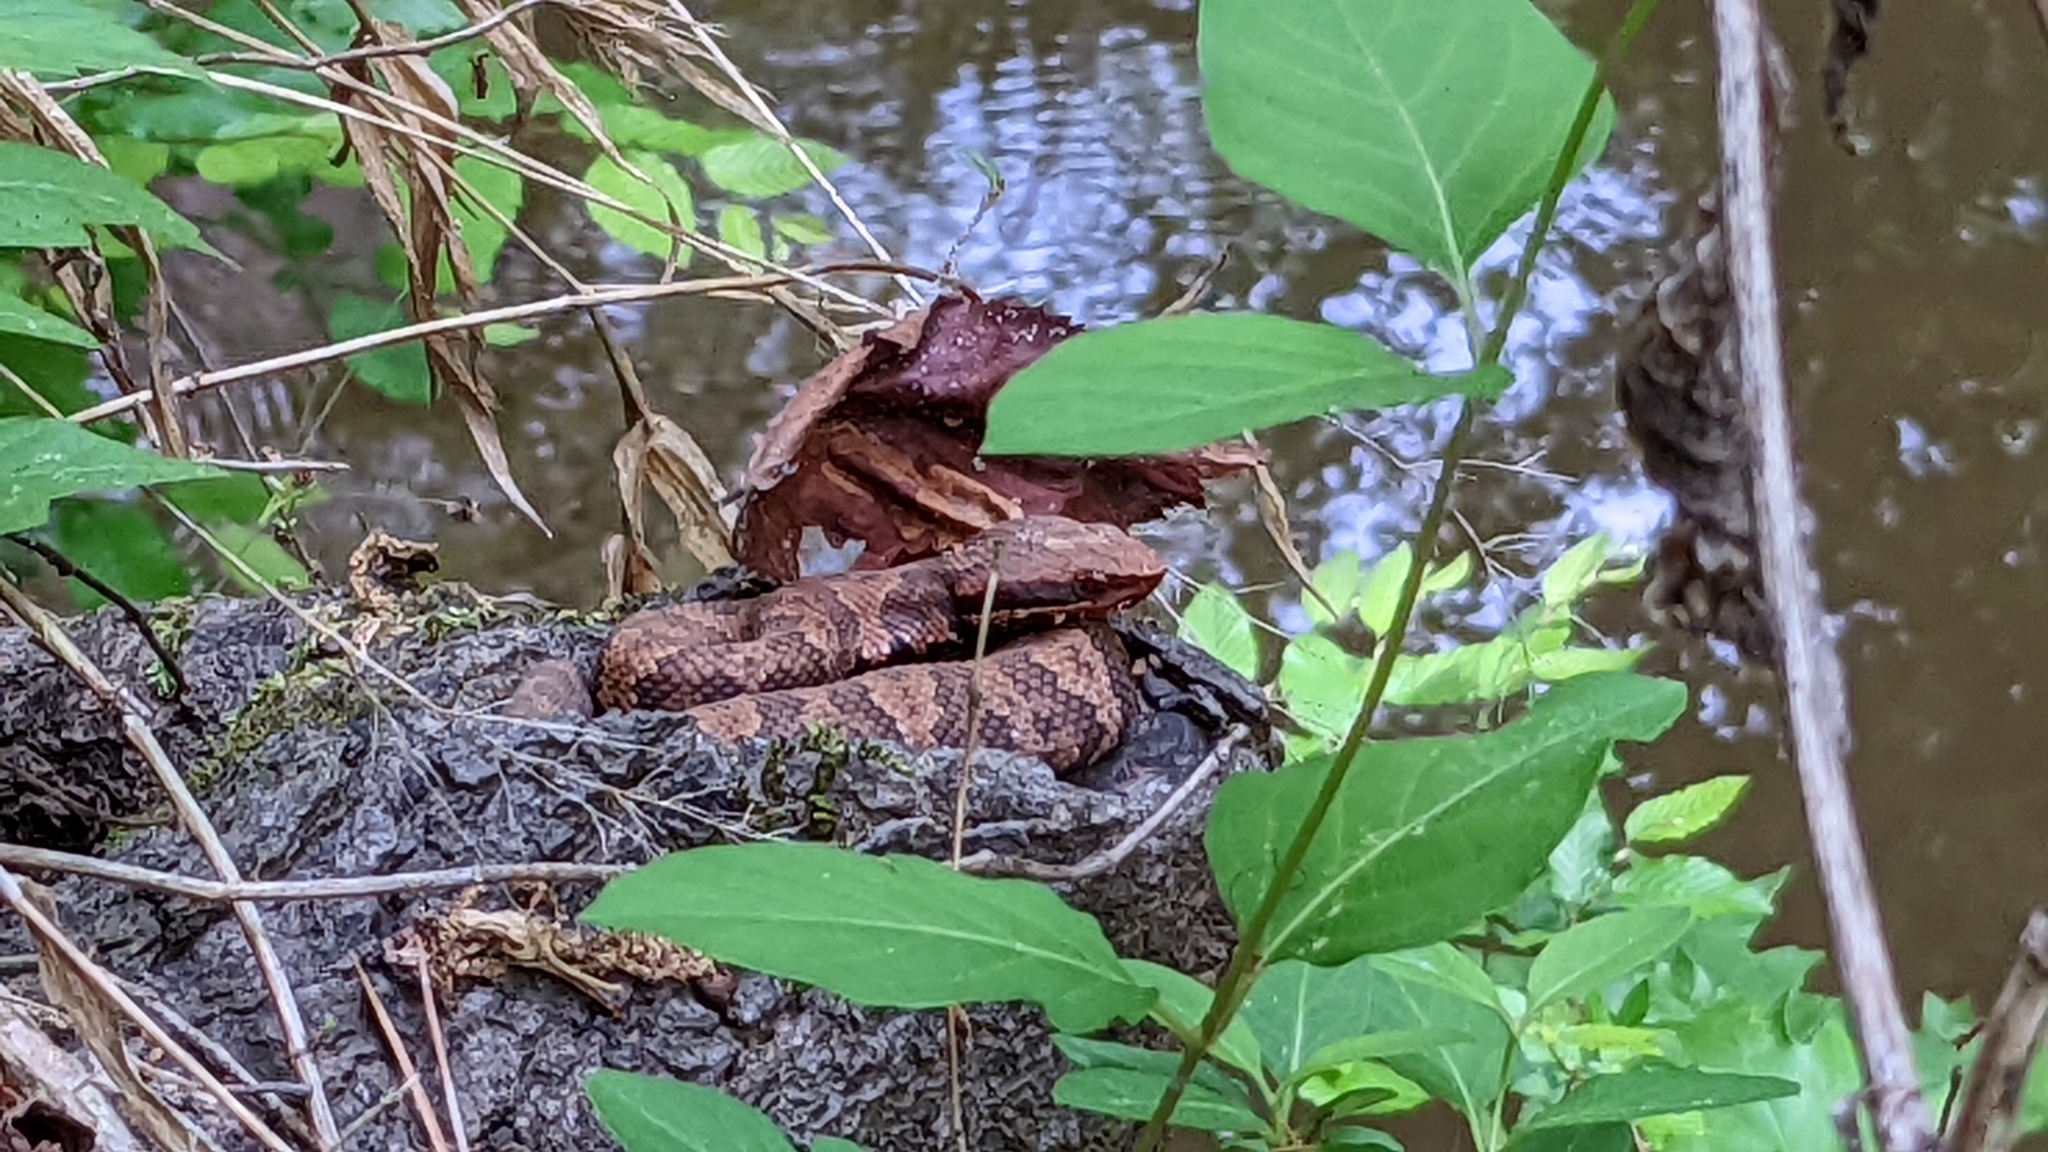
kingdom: Animalia
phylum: Chordata
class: Squamata
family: Viperidae
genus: Agkistrodon
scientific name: Agkistrodon piscivorus
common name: Cottonmouth
